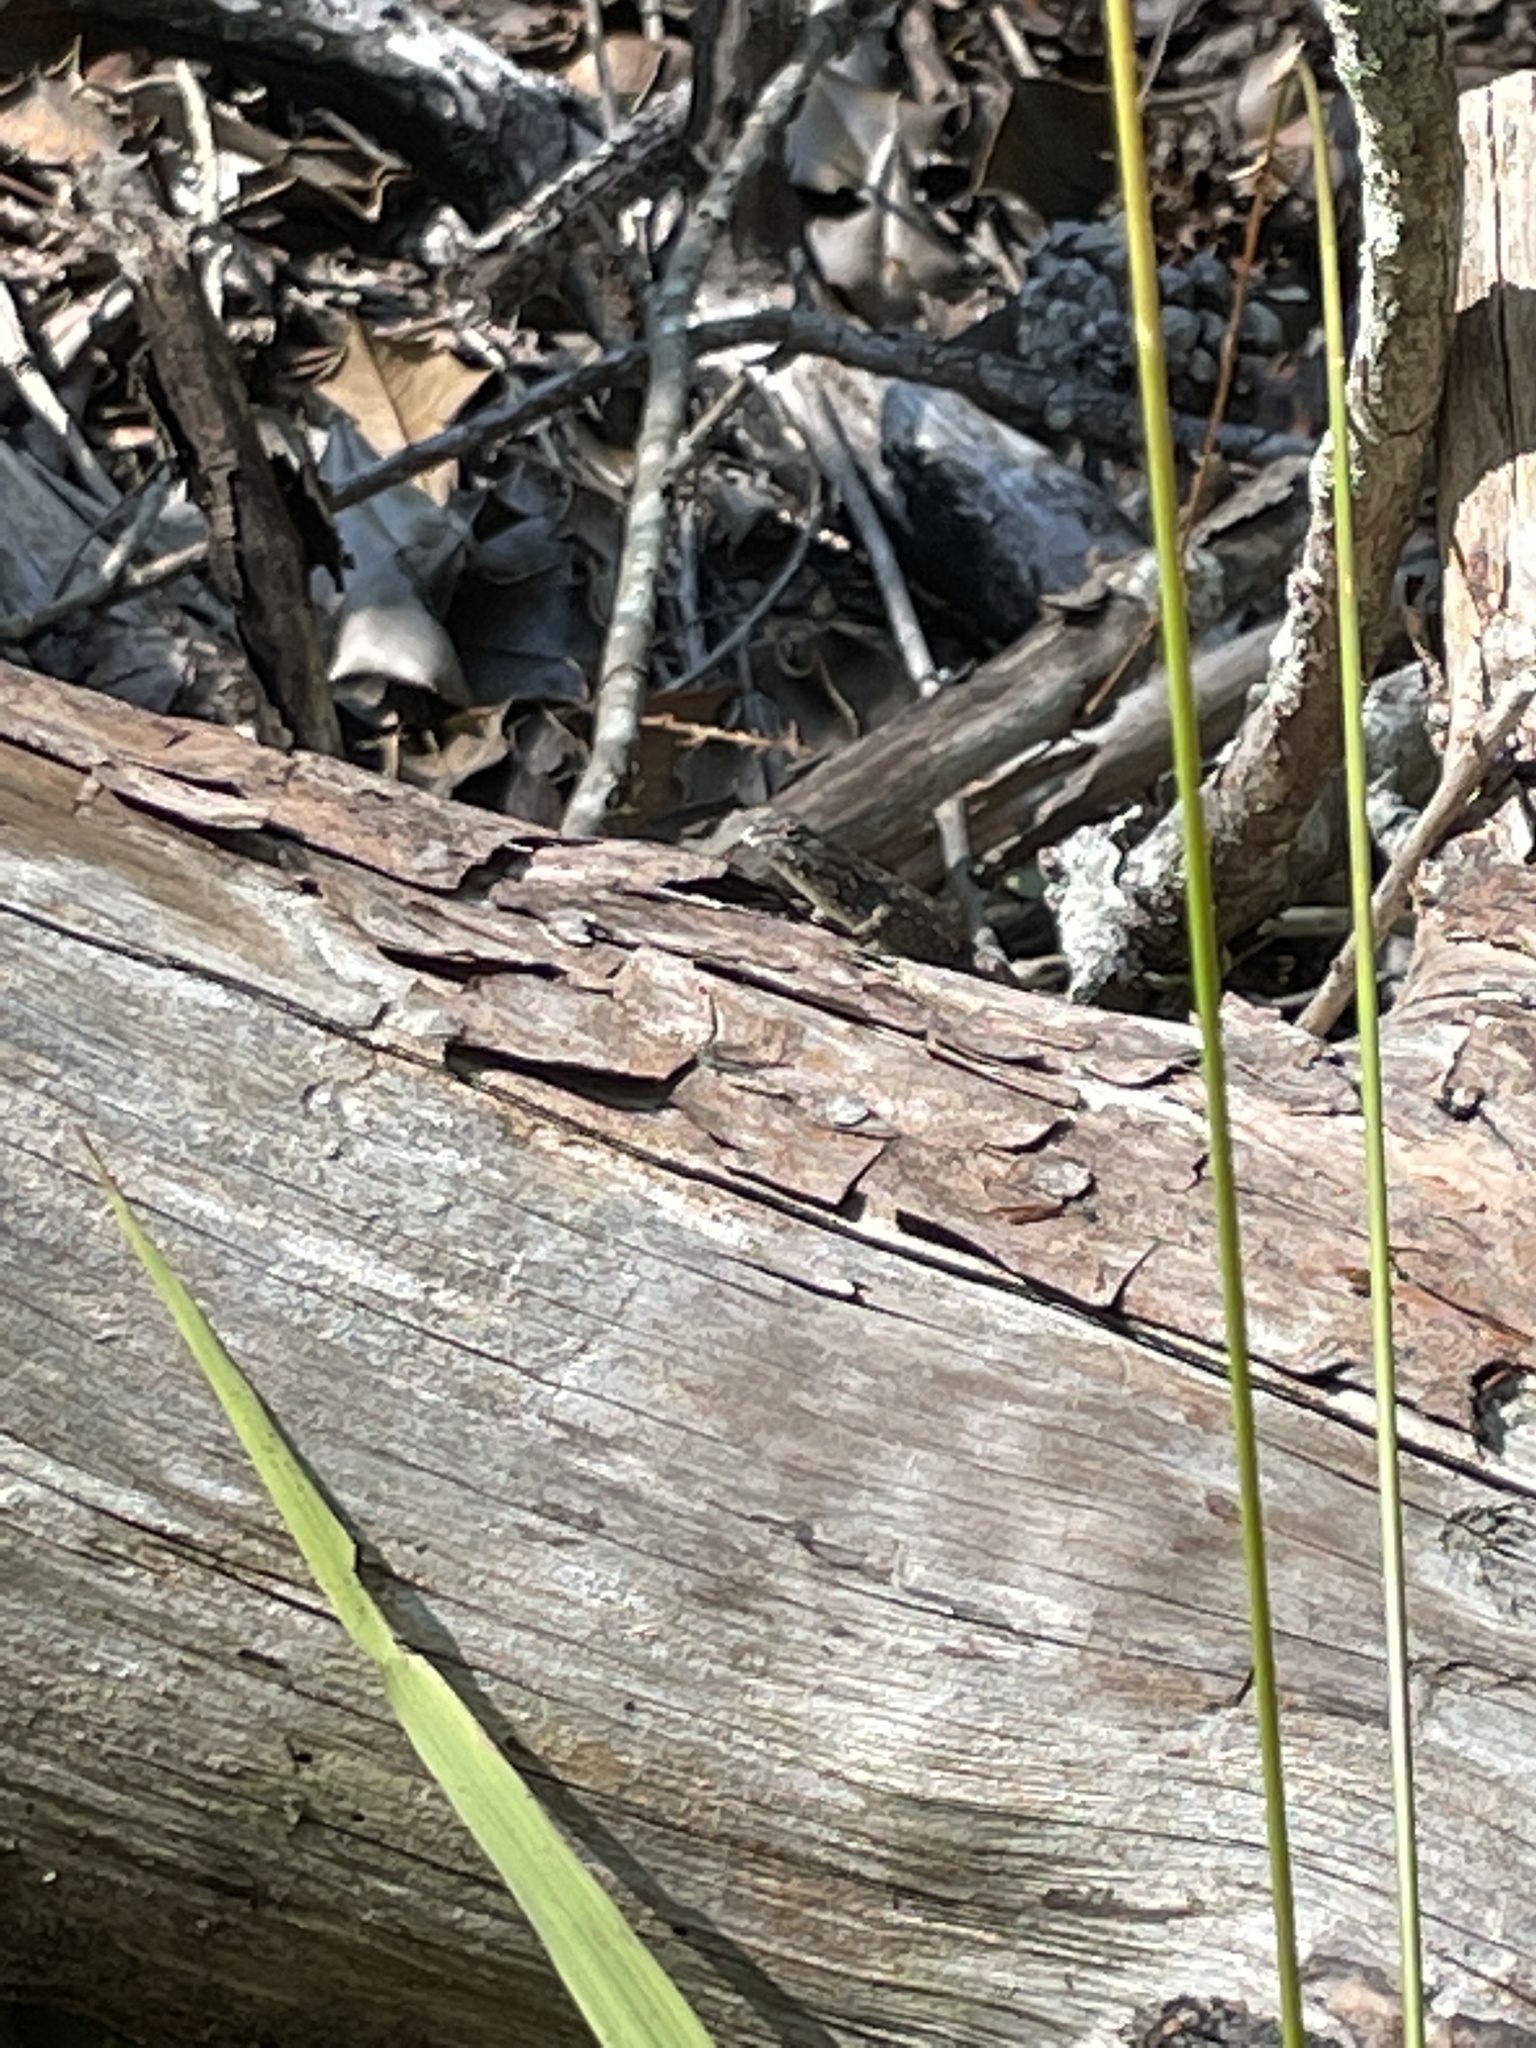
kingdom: Animalia
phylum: Chordata
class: Squamata
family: Phrynosomatidae
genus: Sceloporus
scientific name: Sceloporus undulatus
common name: Eastern fence lizard
